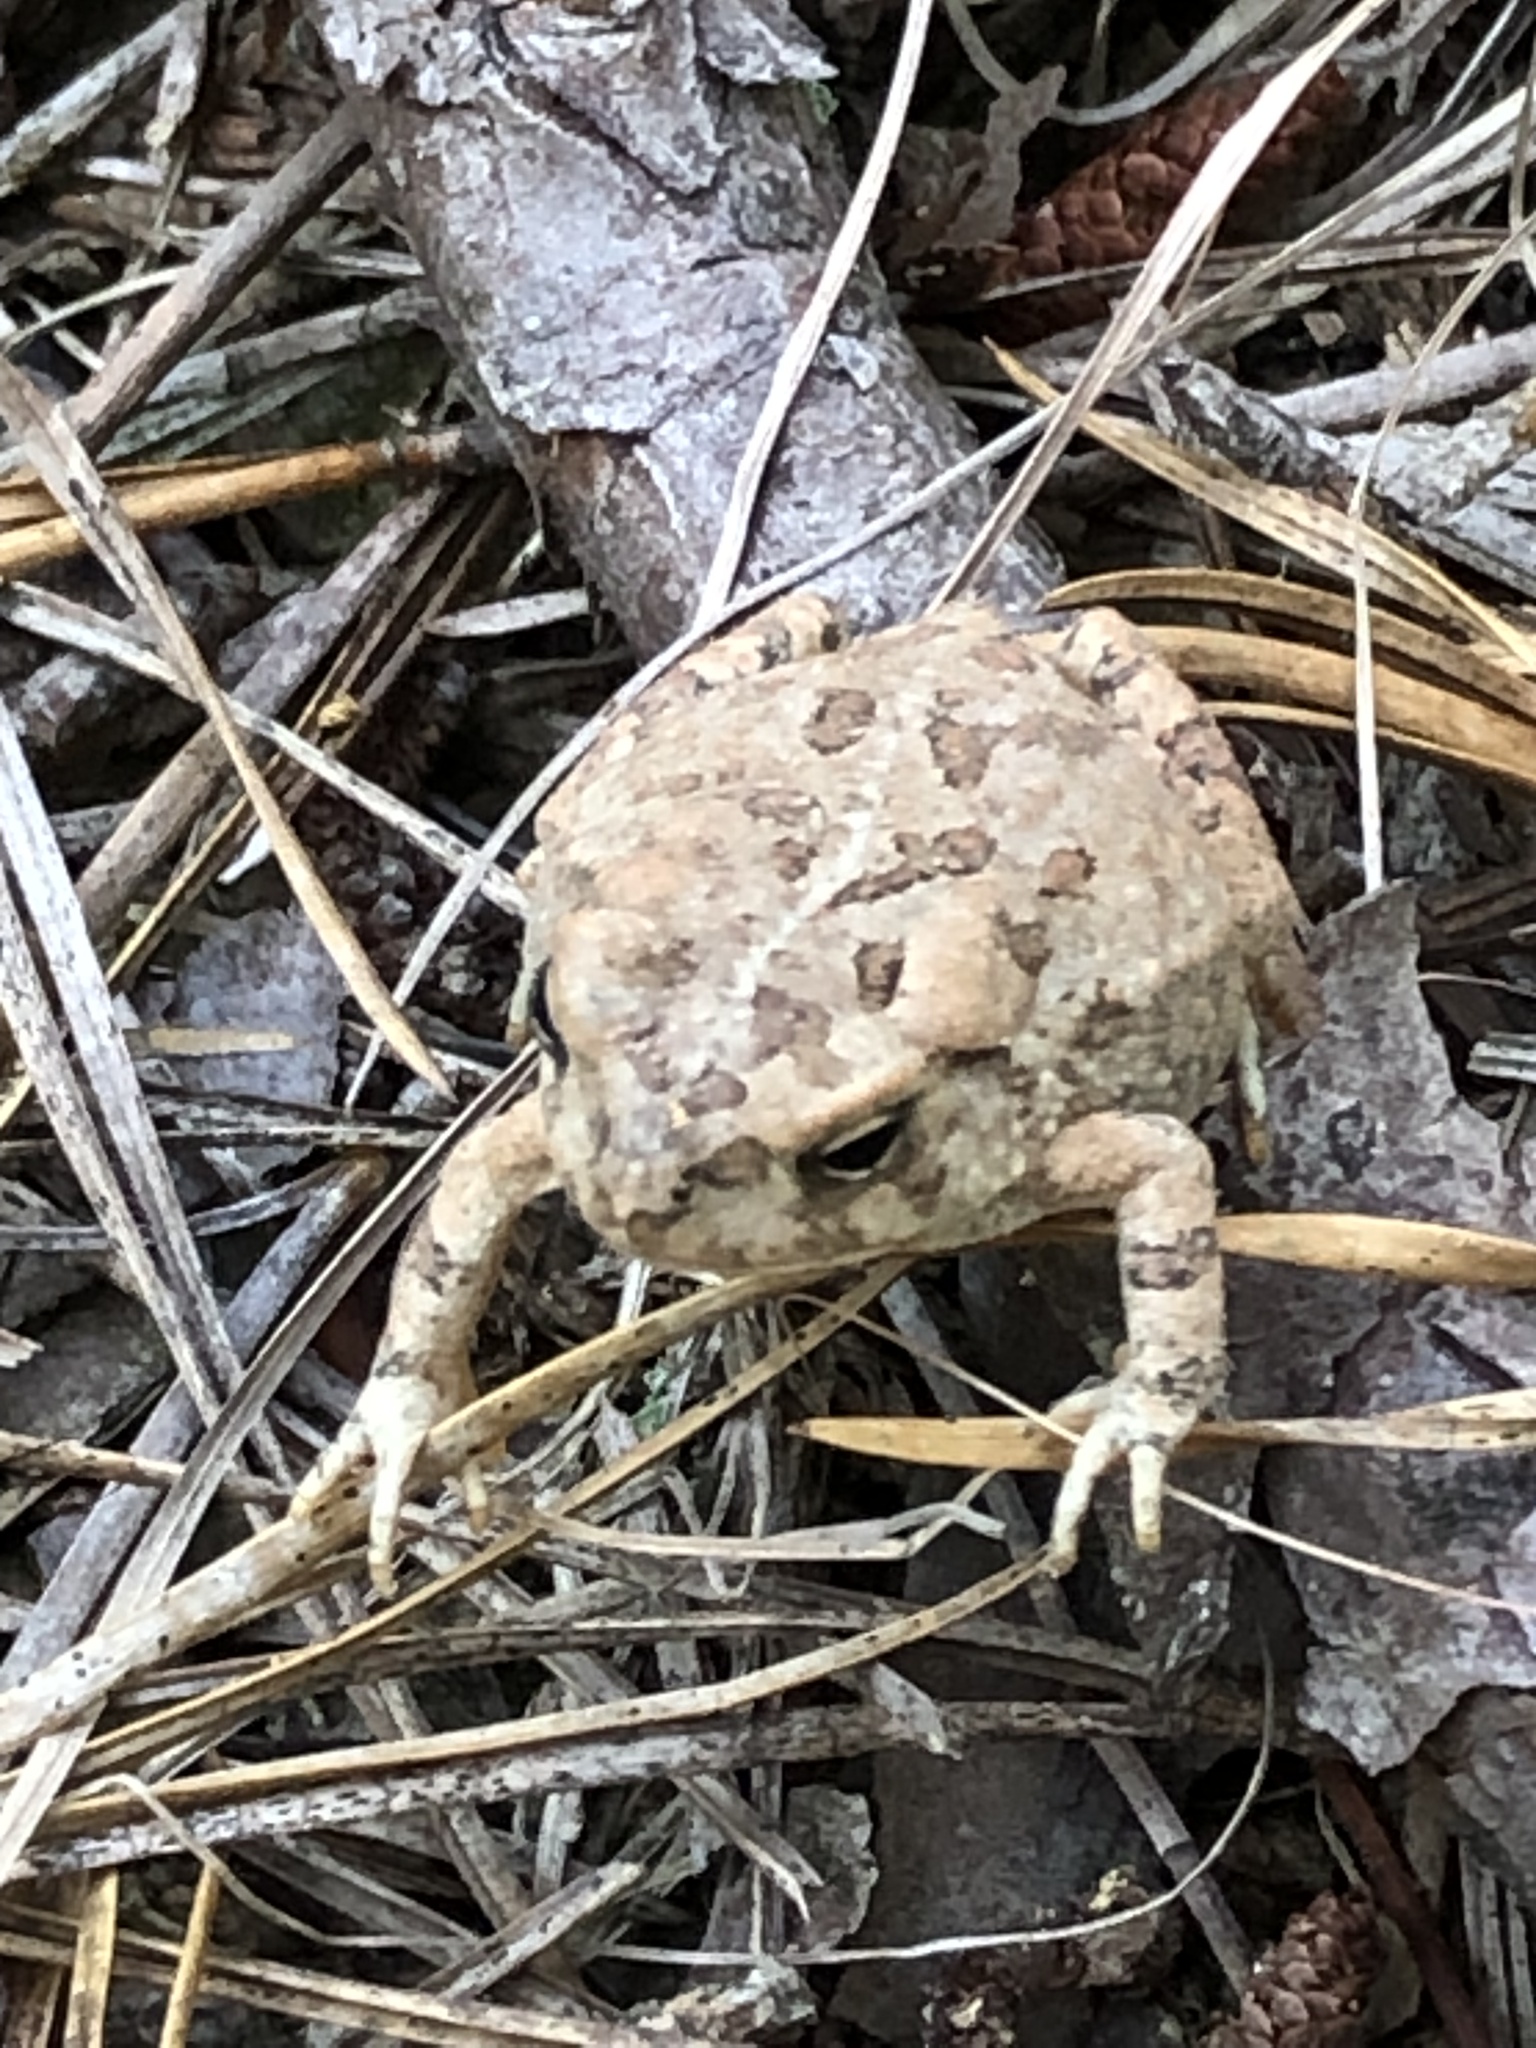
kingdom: Animalia
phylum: Chordata
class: Amphibia
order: Anura
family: Bufonidae
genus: Anaxyrus
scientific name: Anaxyrus fowleri
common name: Fowler's toad
